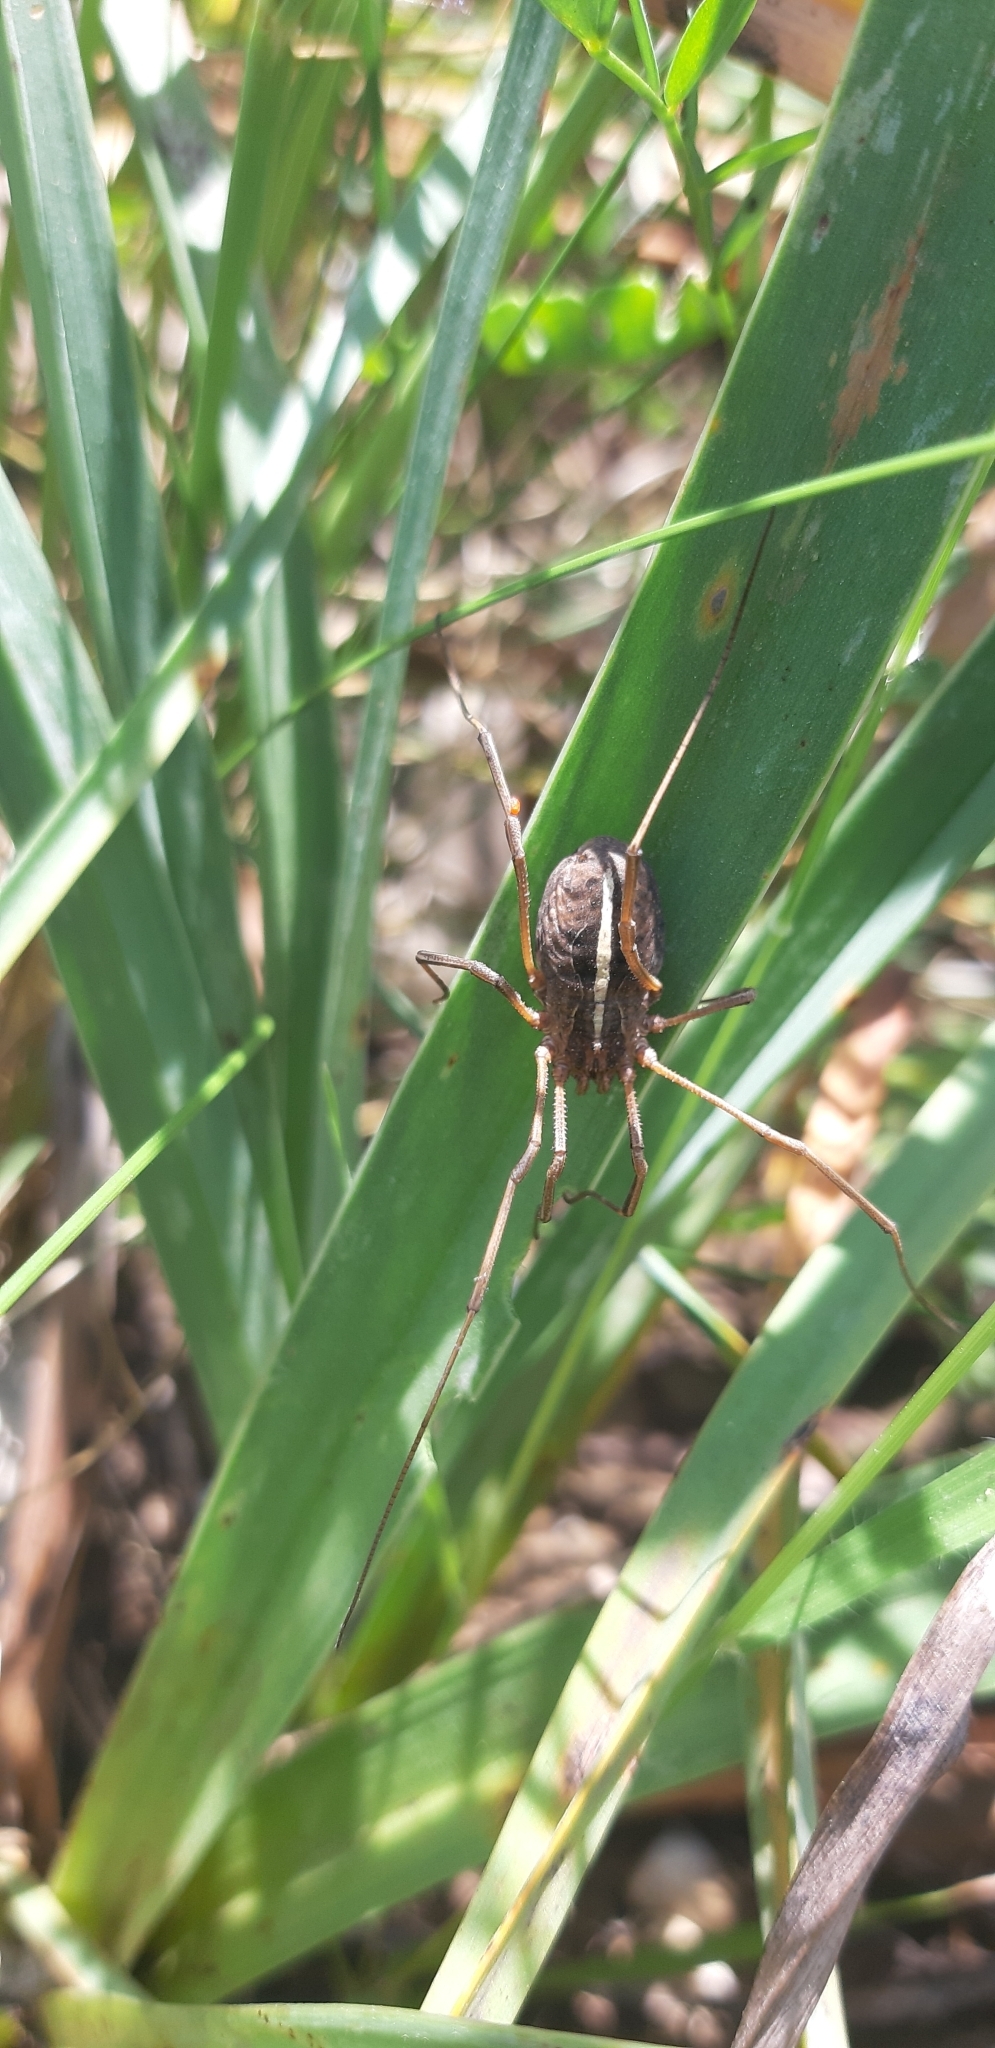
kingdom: Animalia
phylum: Arthropoda
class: Arachnida
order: Opiliones
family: Phalangiidae
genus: Metaphalangium
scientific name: Metaphalangium cirtanum
